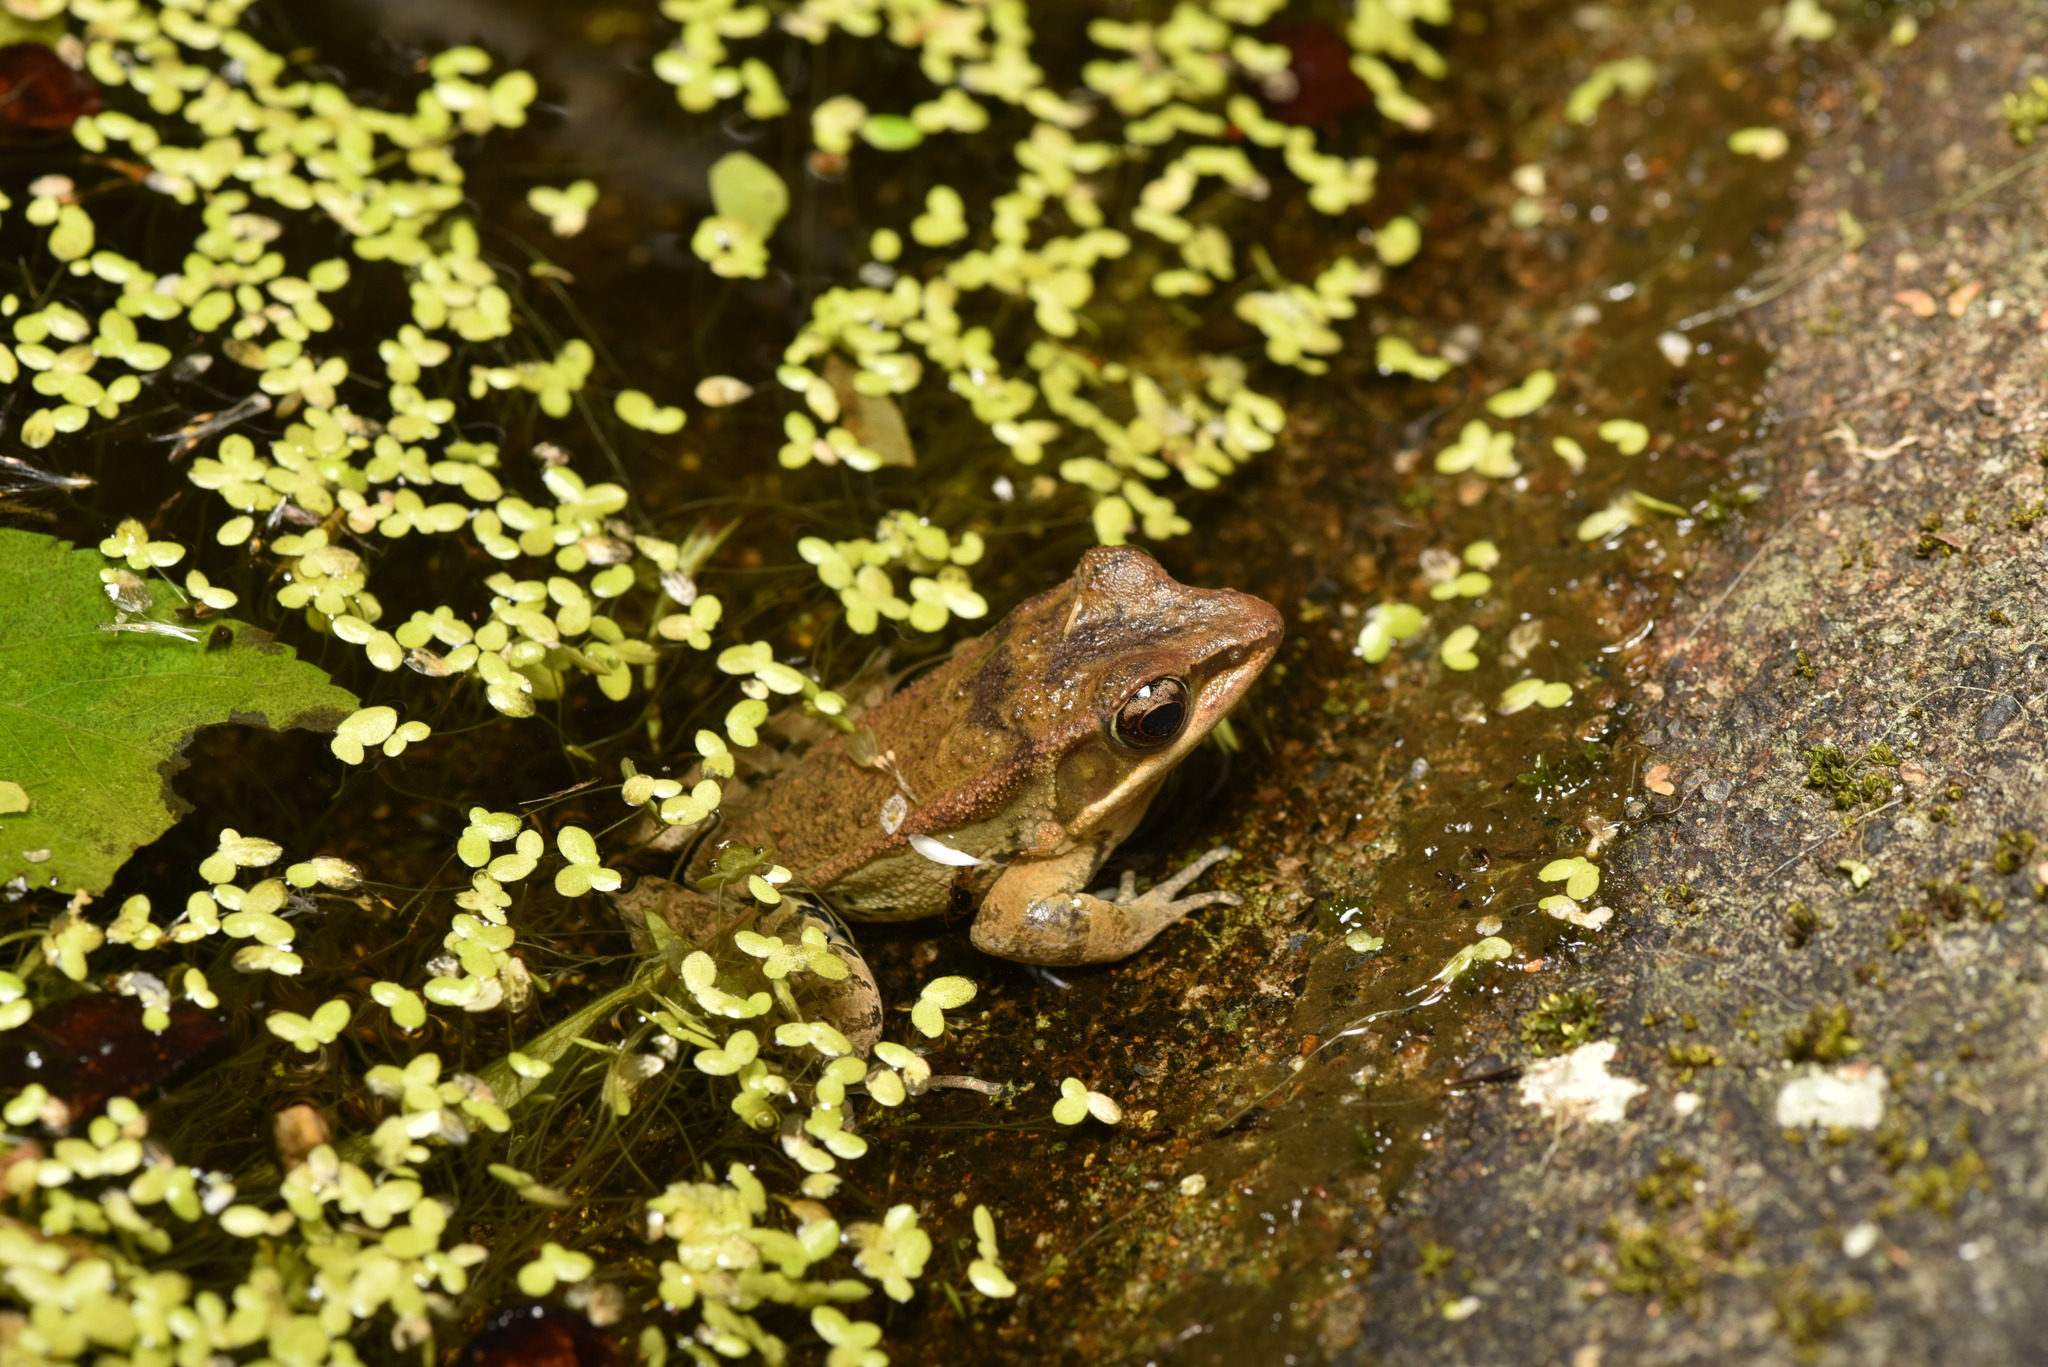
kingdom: Animalia
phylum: Chordata
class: Amphibia
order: Anura
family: Ranidae
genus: Hylarana
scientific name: Hylarana latouchii
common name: Broad-folded frog
